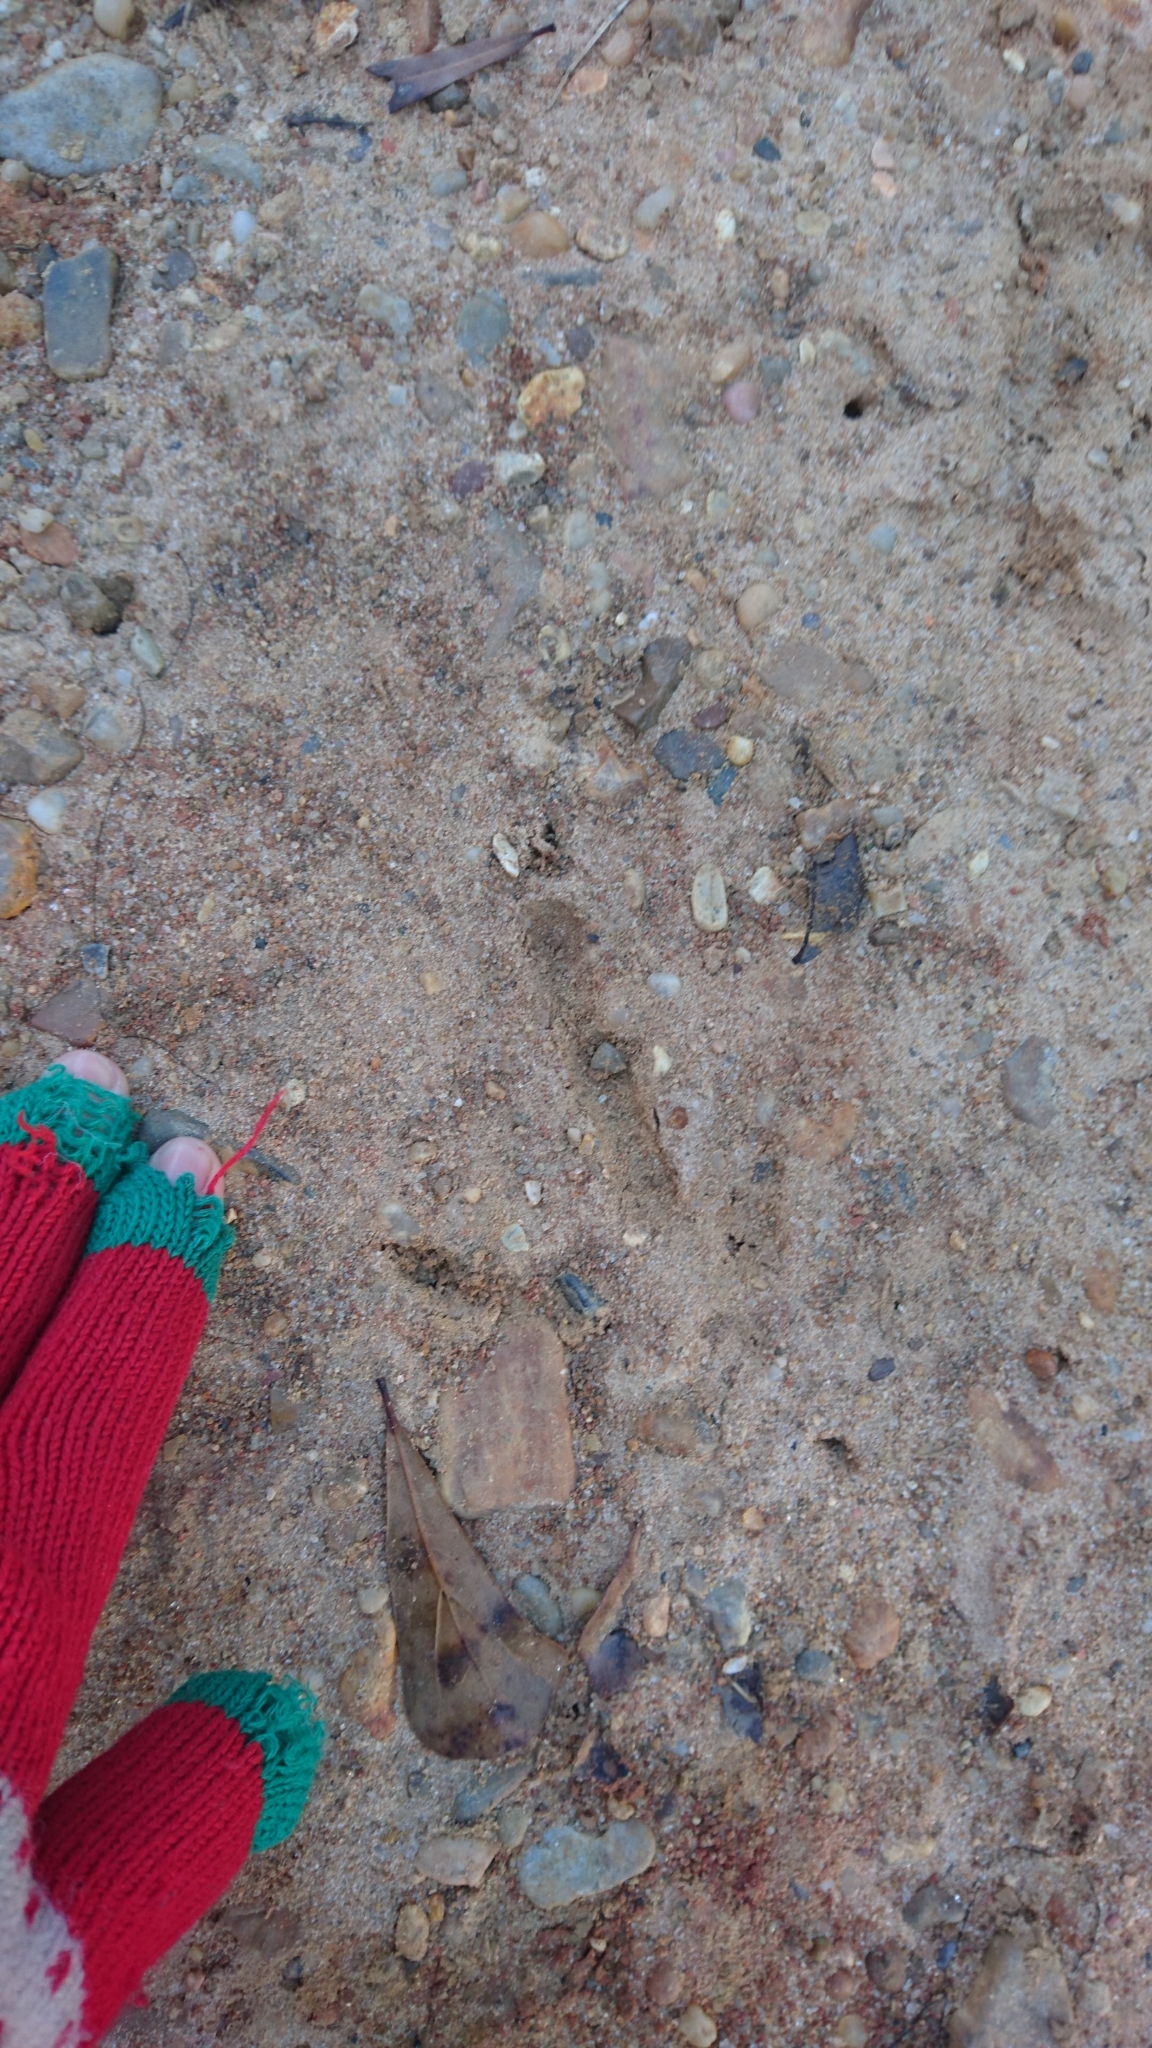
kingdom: Animalia
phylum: Chordata
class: Aves
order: Galliformes
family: Phasianidae
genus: Meleagris
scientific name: Meleagris gallopavo
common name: Wild turkey
